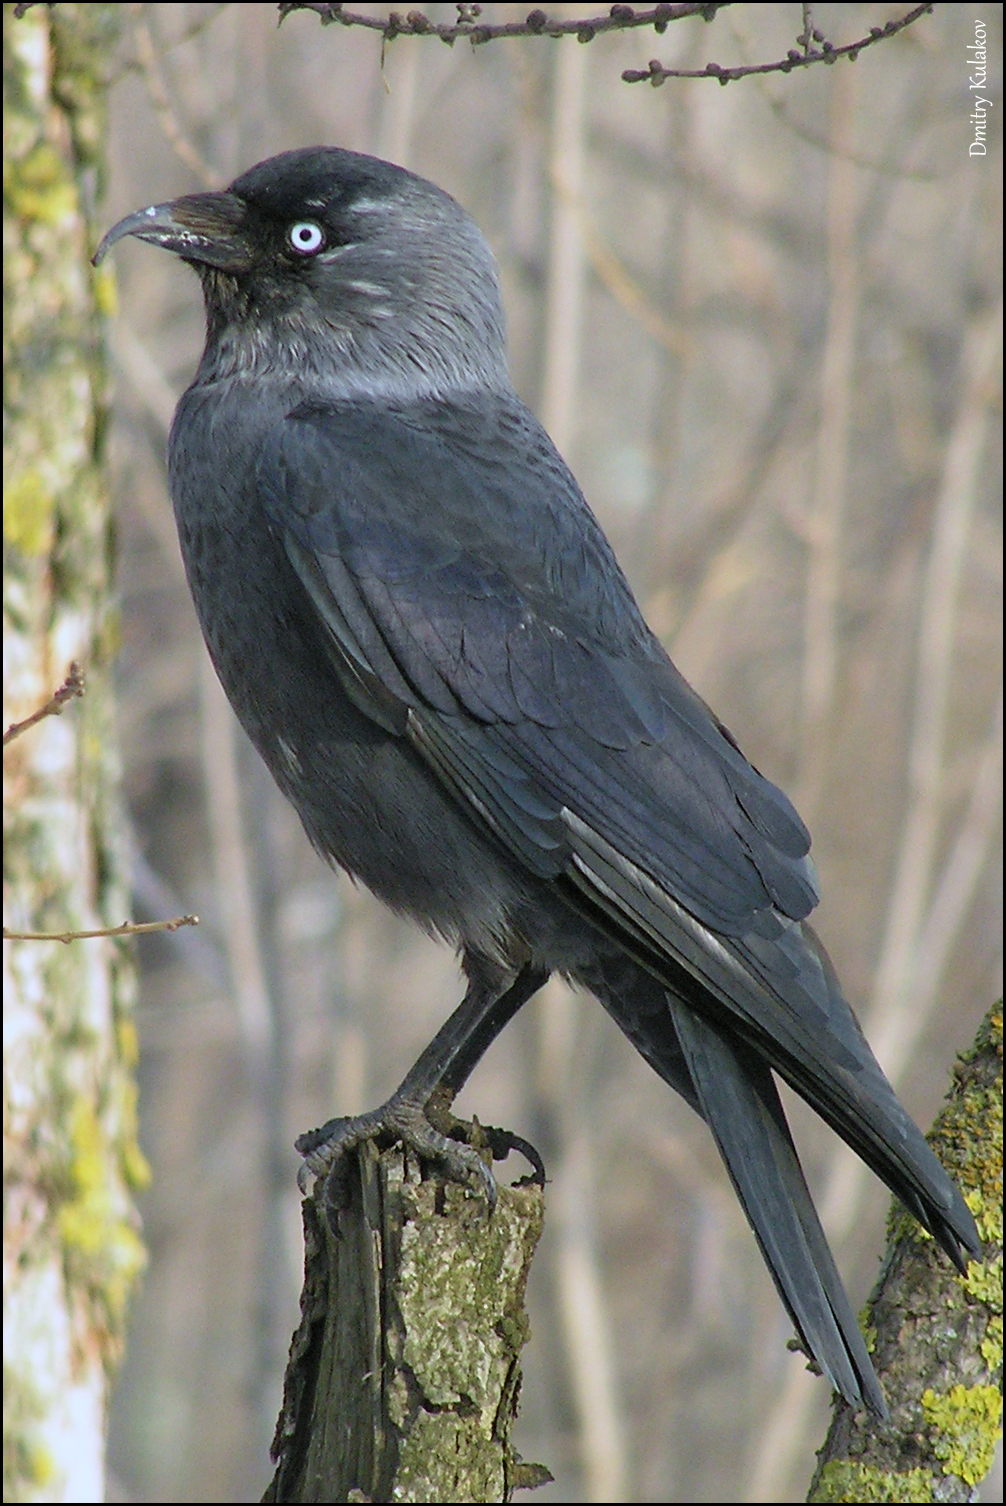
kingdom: Animalia
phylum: Chordata
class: Aves
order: Passeriformes
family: Corvidae
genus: Coloeus
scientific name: Coloeus monedula
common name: Western jackdaw
